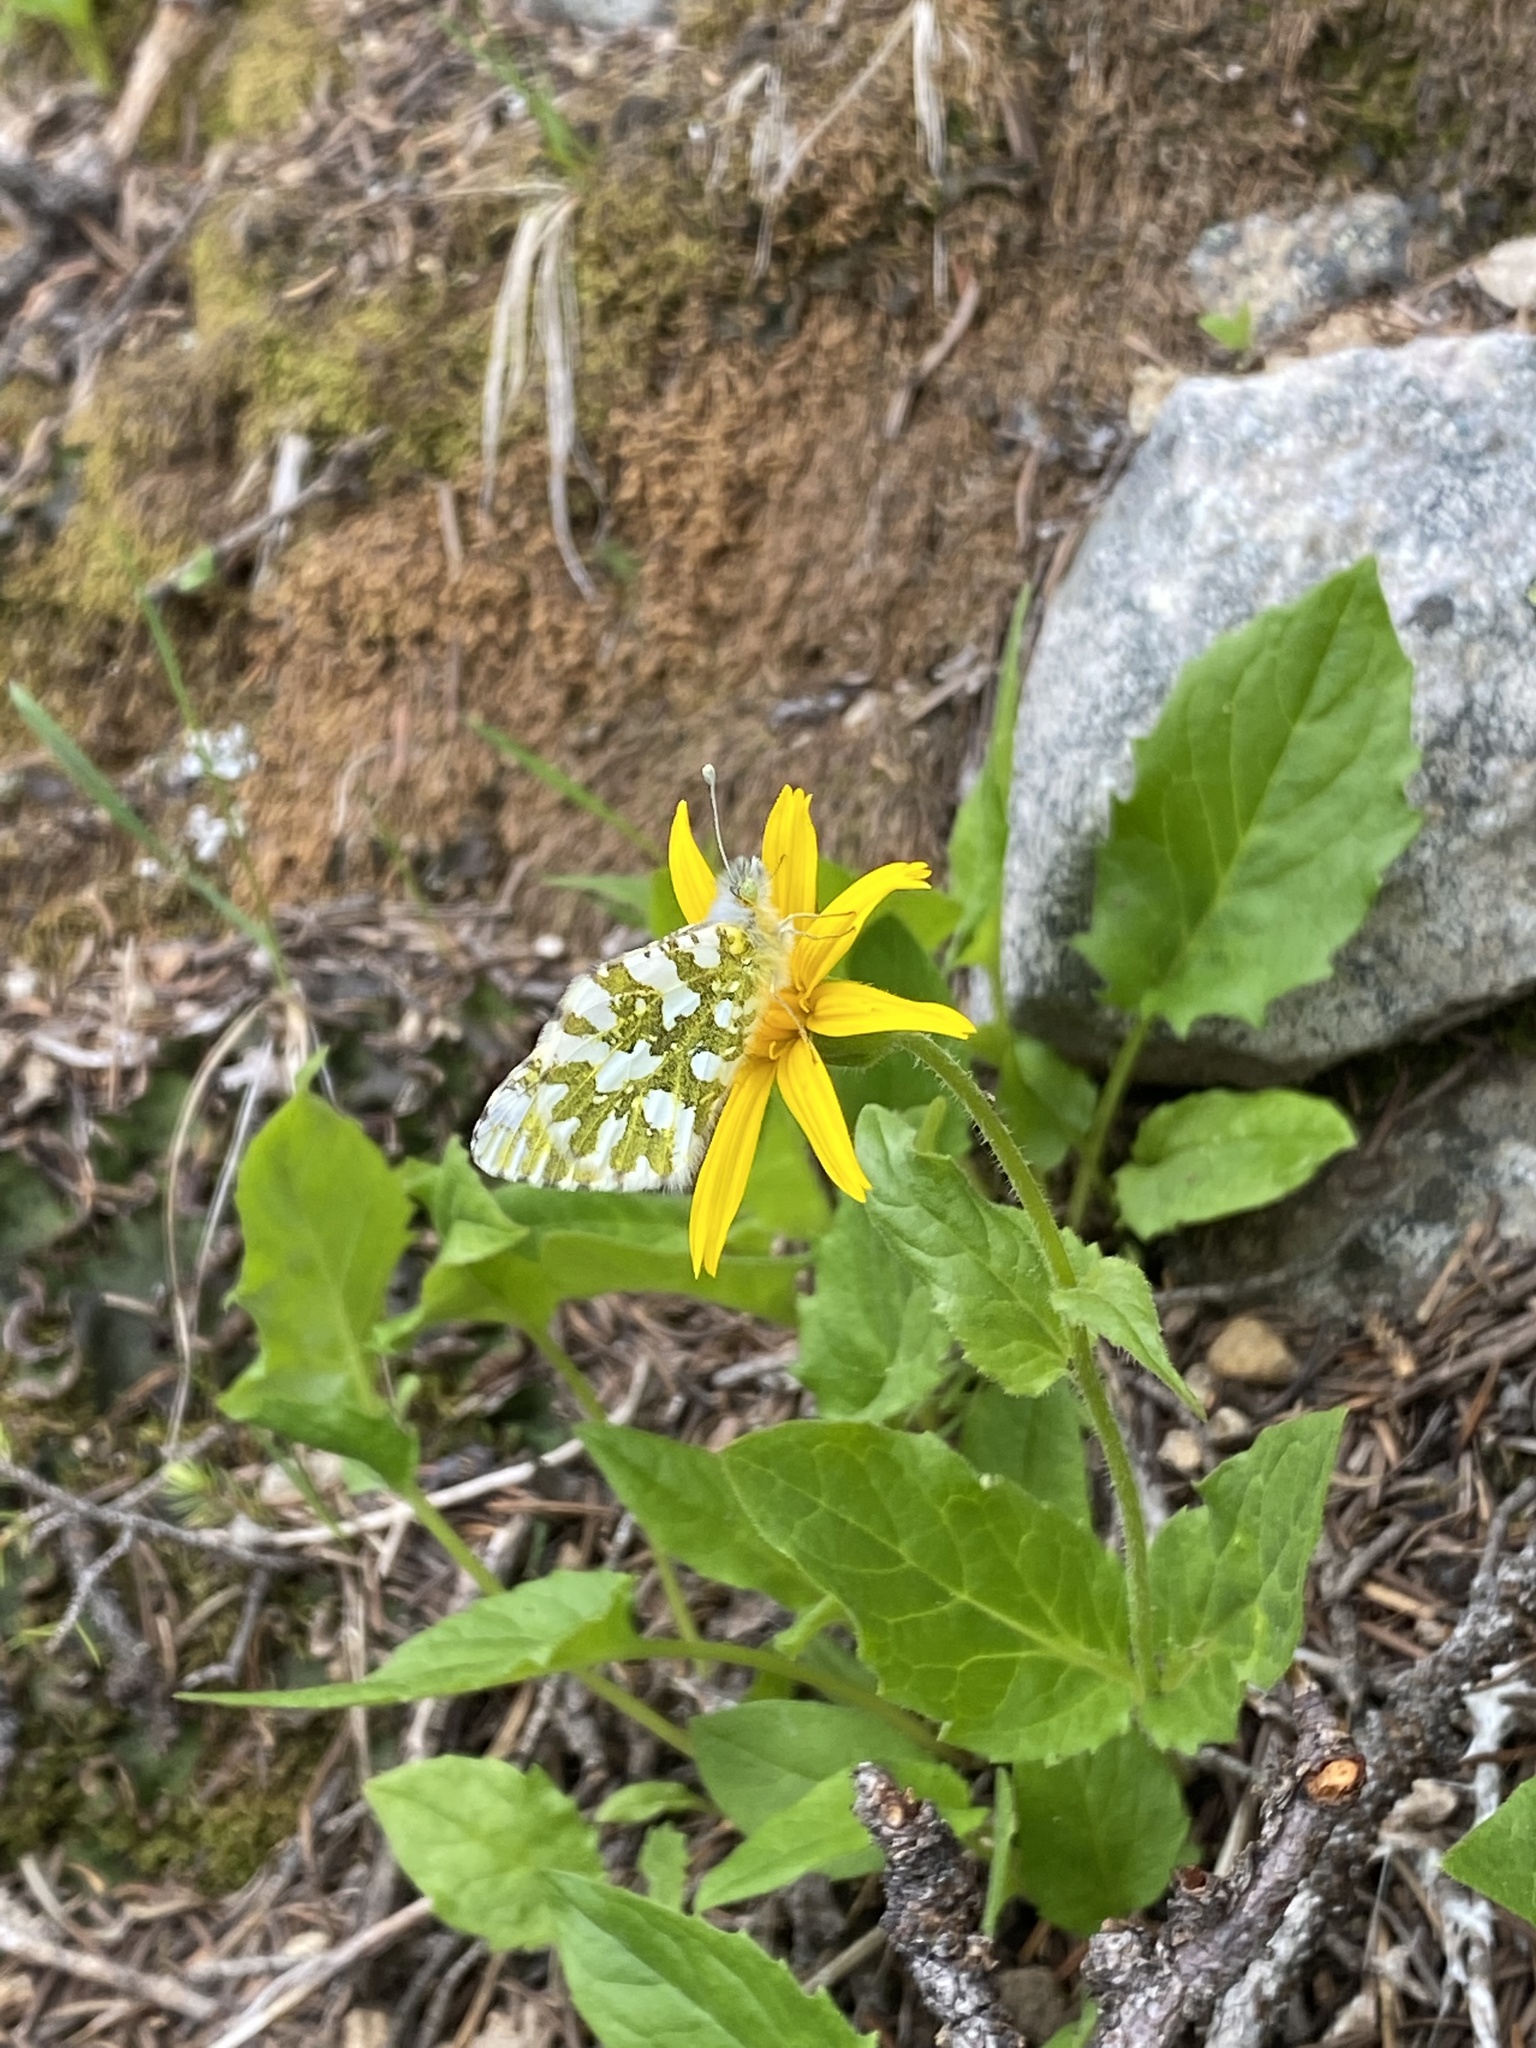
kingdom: Plantae
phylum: Tracheophyta
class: Magnoliopsida
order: Asterales
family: Asteraceae
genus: Arnica
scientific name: Arnica latifolia
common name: Arnica
